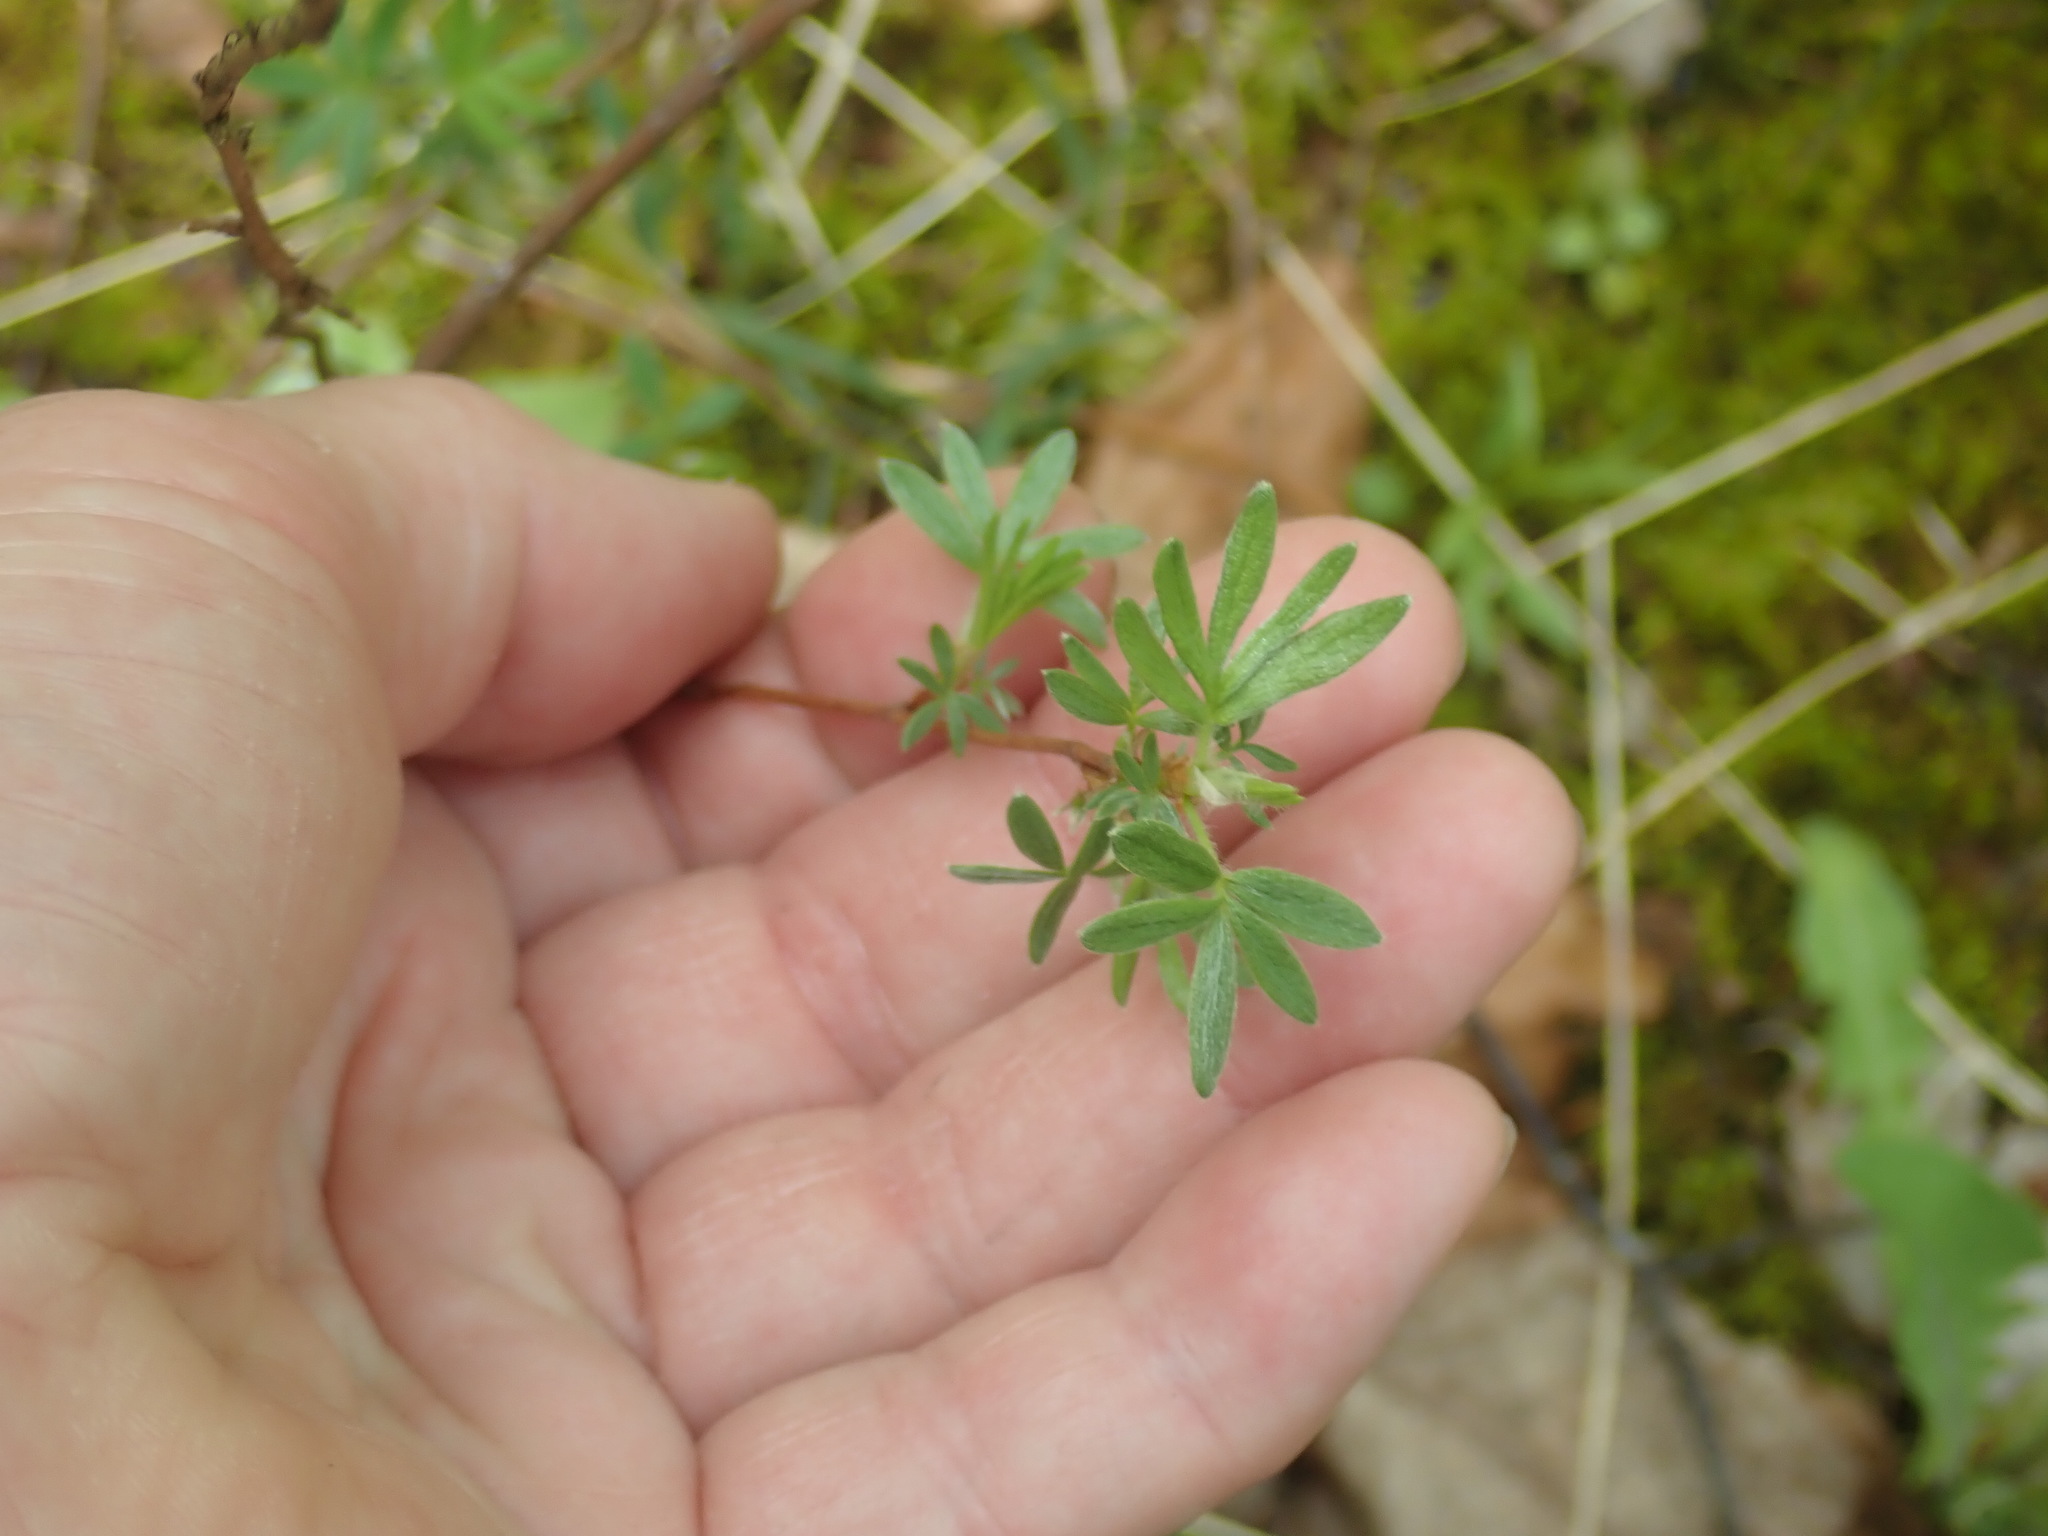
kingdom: Plantae
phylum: Tracheophyta
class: Magnoliopsida
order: Rosales
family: Rosaceae
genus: Dasiphora
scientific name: Dasiphora fruticosa
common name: Shrubby cinquefoil
